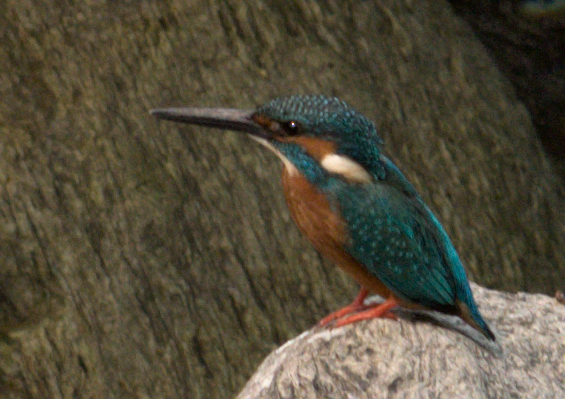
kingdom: Animalia
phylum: Chordata
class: Aves
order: Coraciiformes
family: Alcedinidae
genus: Alcedo
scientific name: Alcedo atthis
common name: Common kingfisher
